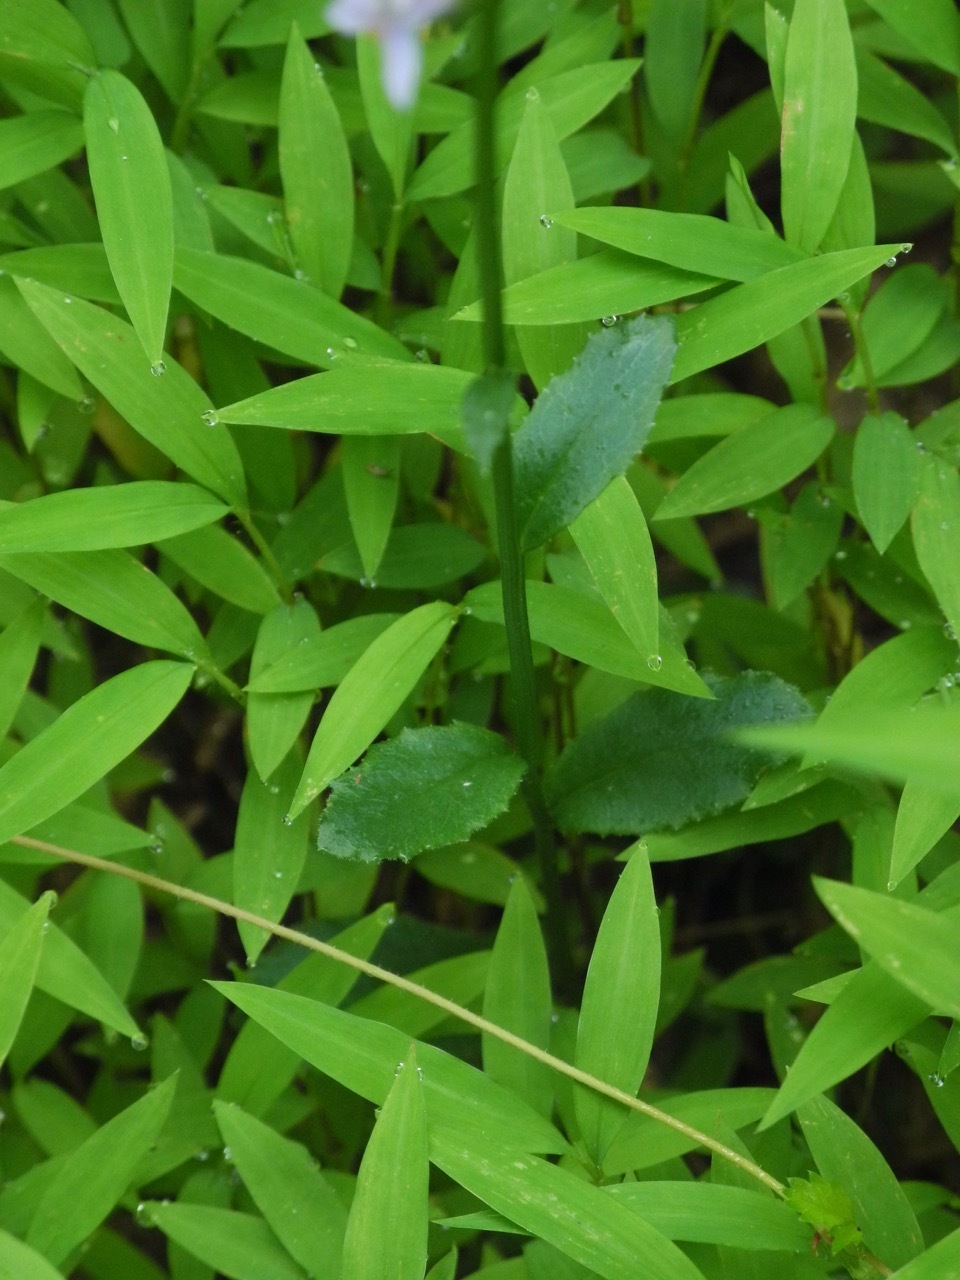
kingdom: Plantae
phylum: Tracheophyta
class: Magnoliopsida
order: Asterales
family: Campanulaceae
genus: Lobelia
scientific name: Lobelia spicata
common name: Pale-spike lobelia
